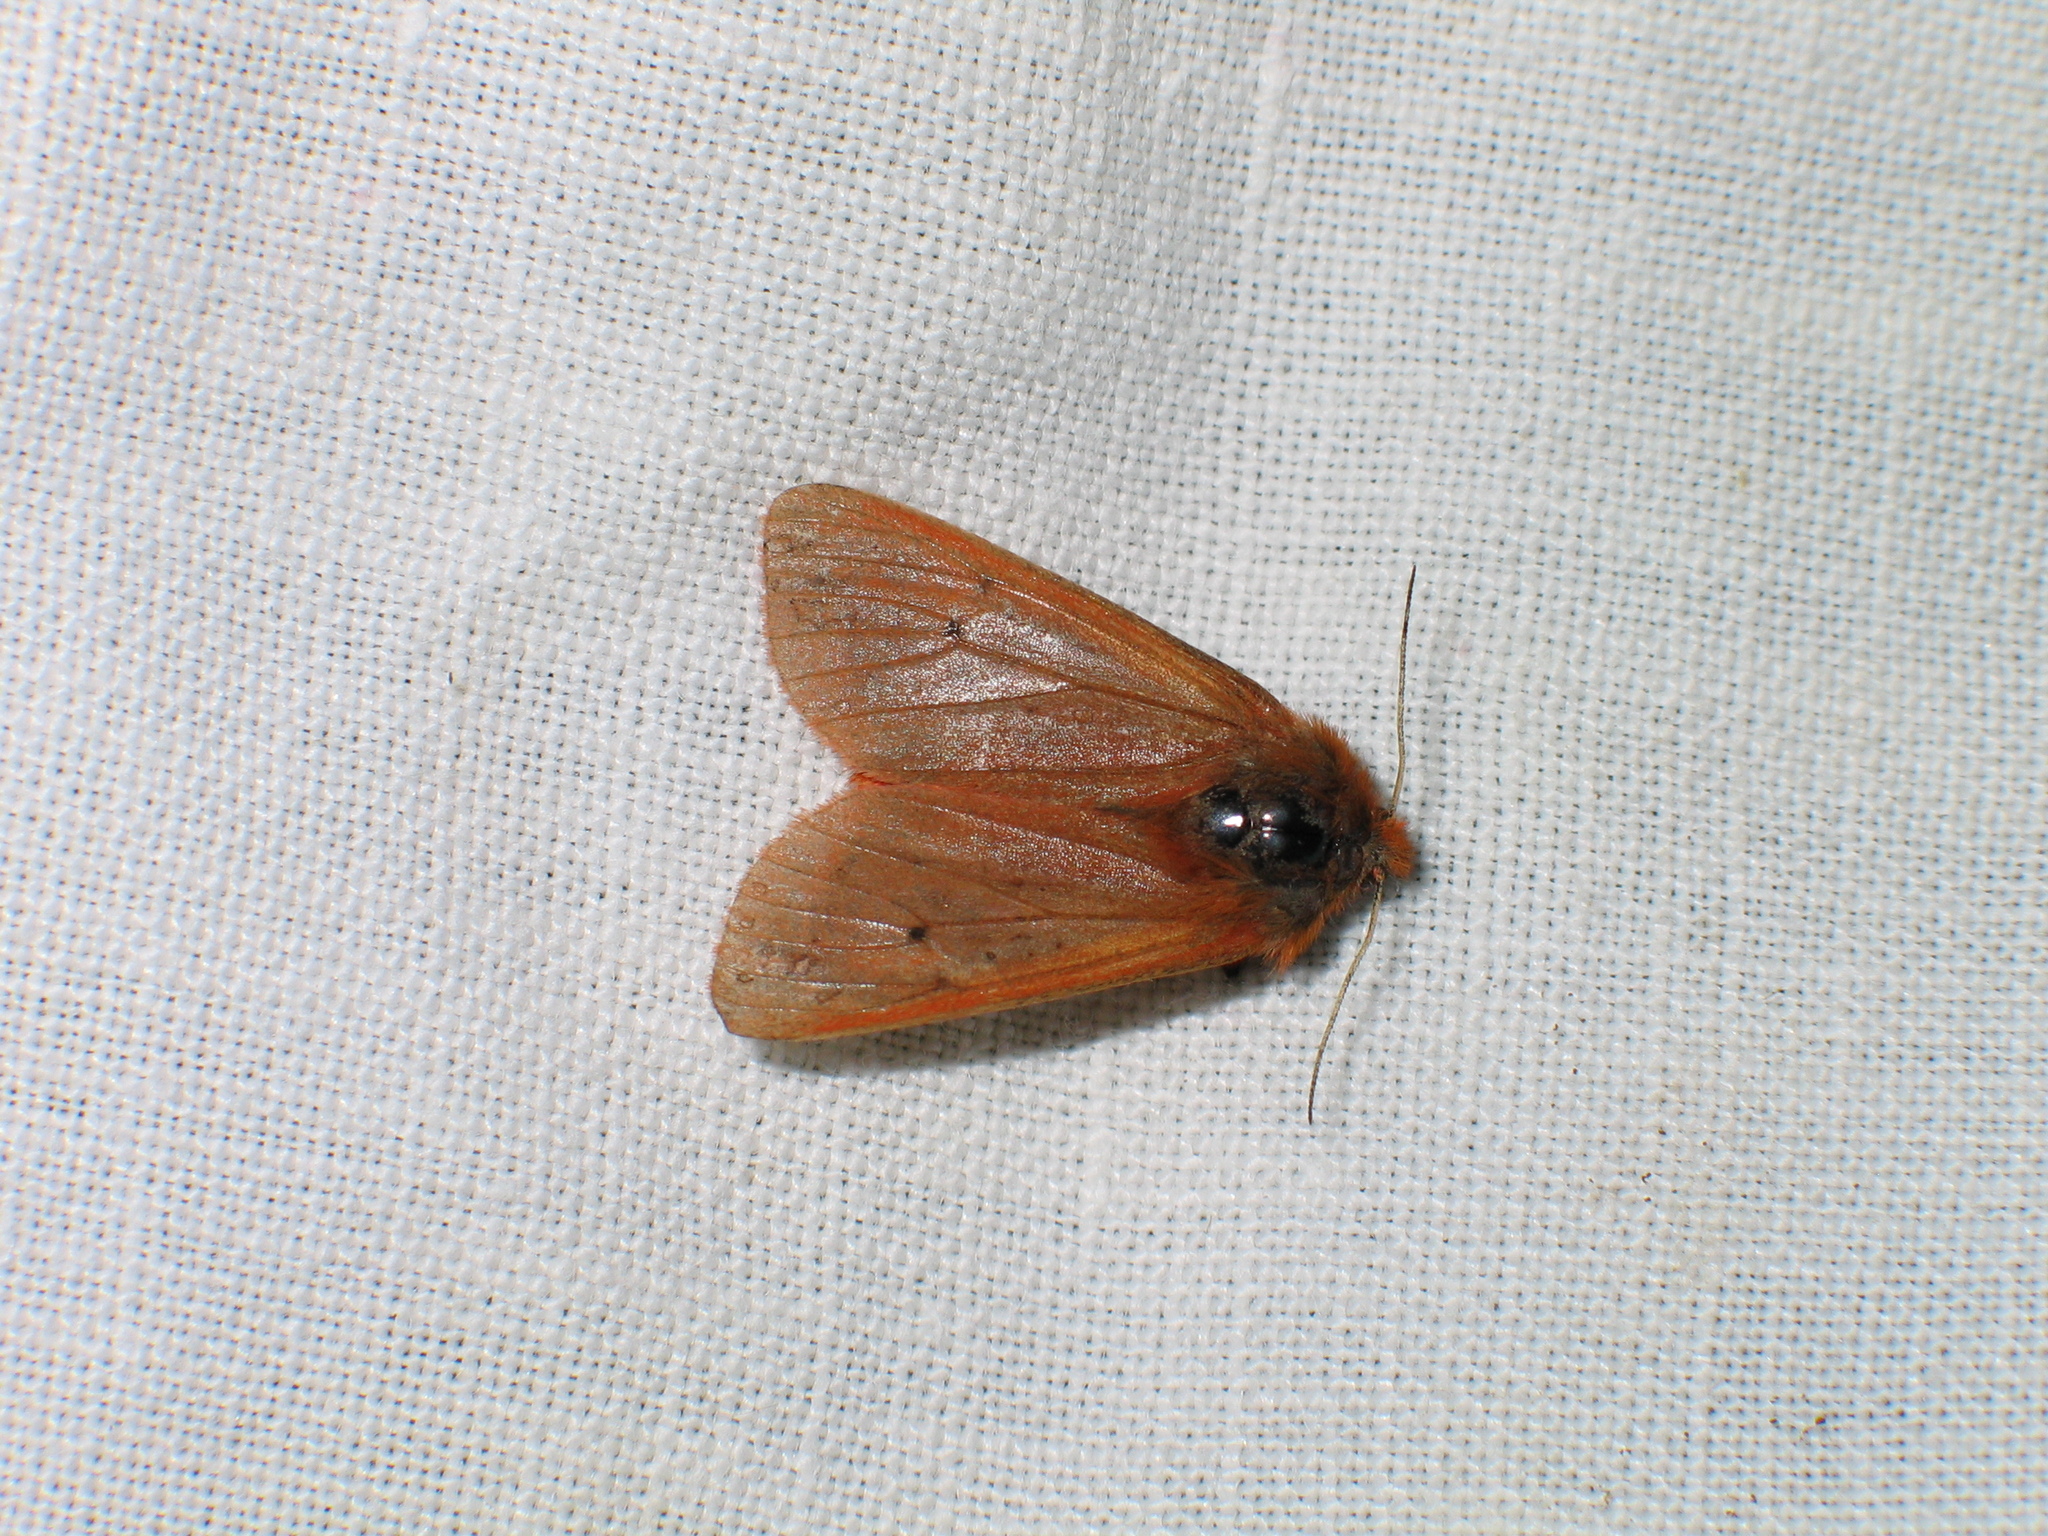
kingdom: Animalia
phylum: Arthropoda
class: Insecta
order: Lepidoptera
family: Erebidae
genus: Phragmatobia
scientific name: Phragmatobia fuliginosa
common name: Ruby tiger
